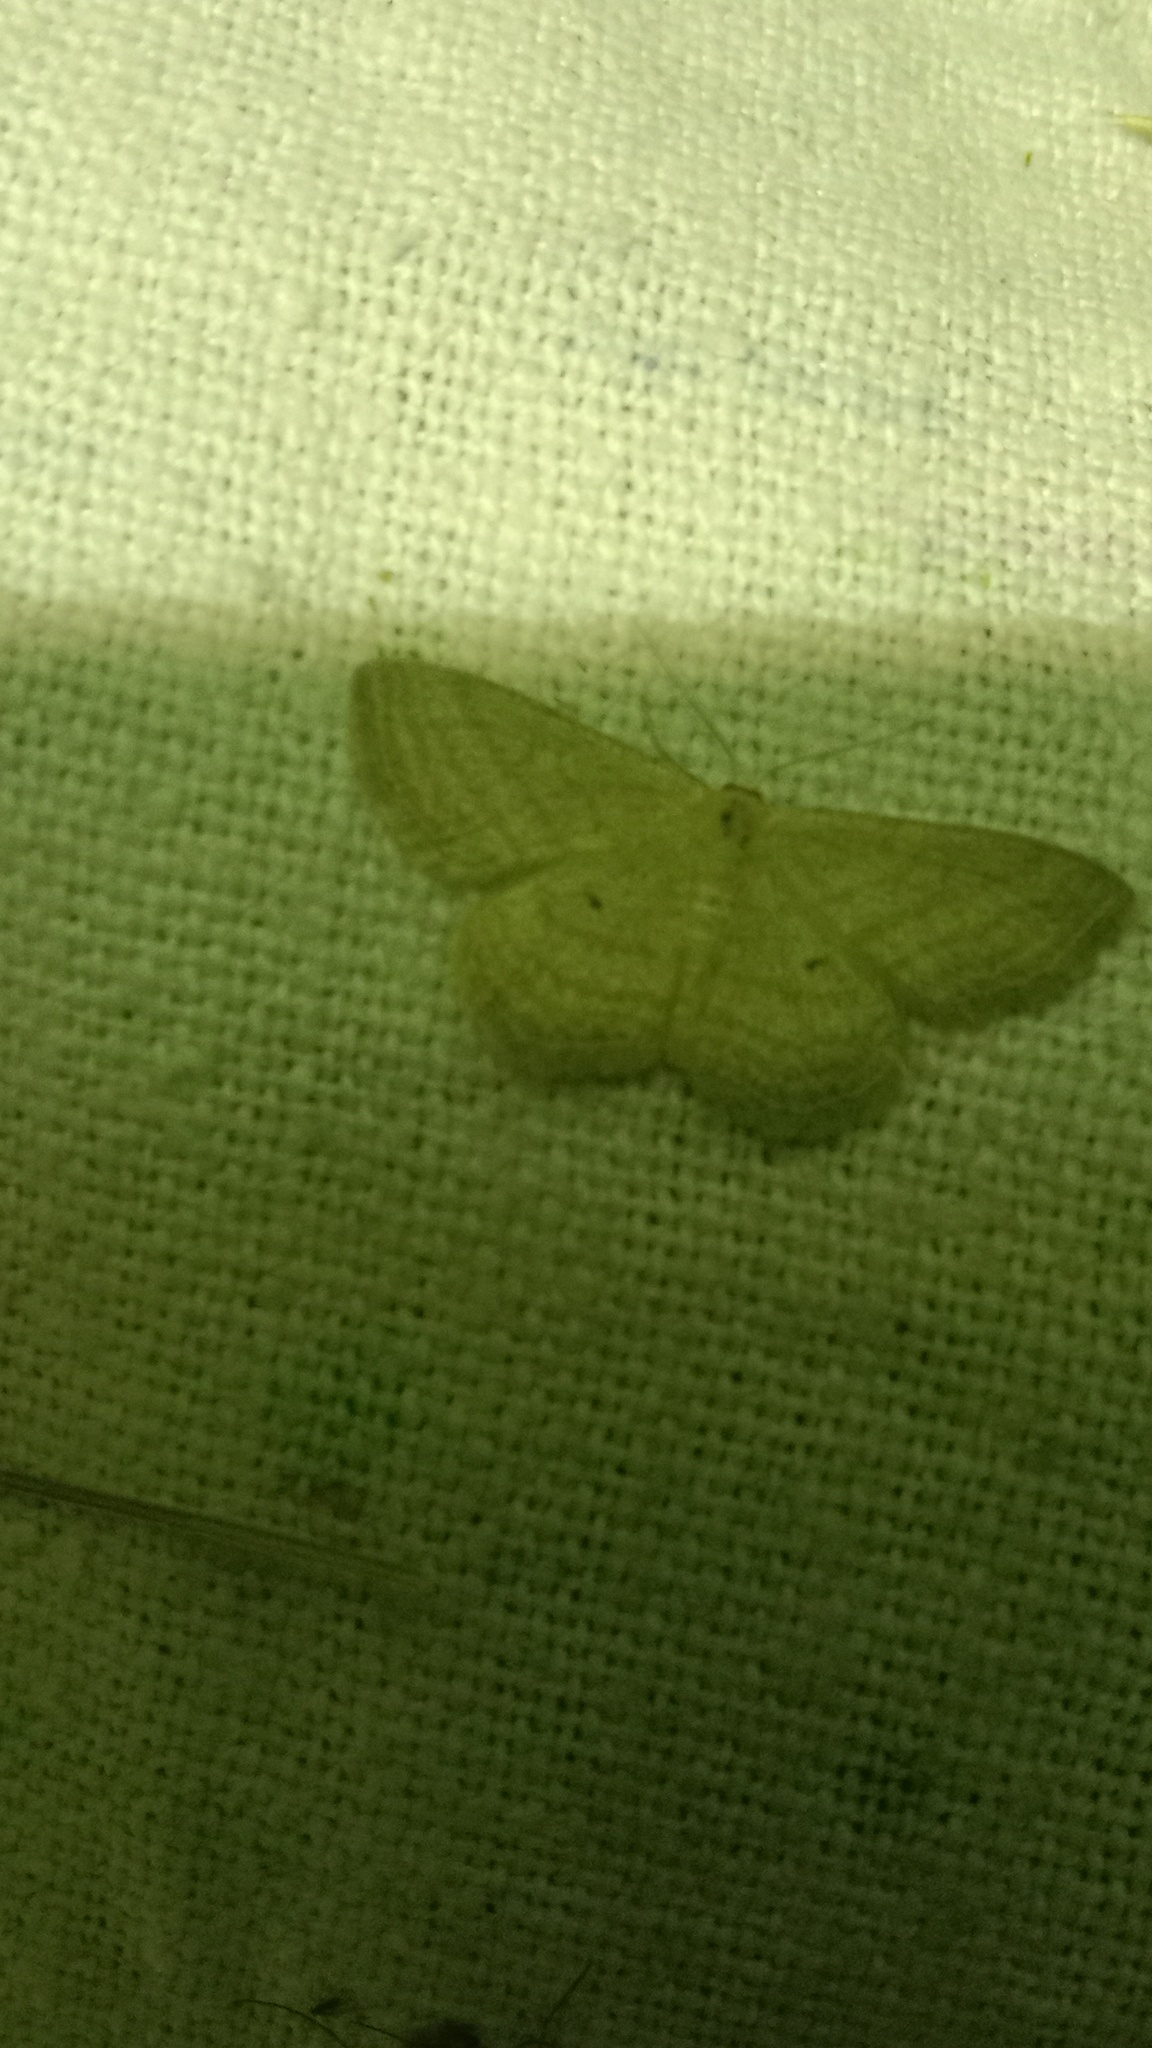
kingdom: Animalia
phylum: Arthropoda
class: Insecta
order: Lepidoptera
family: Geometridae
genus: Scopula
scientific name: Scopula virgulata
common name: Streaked wave
